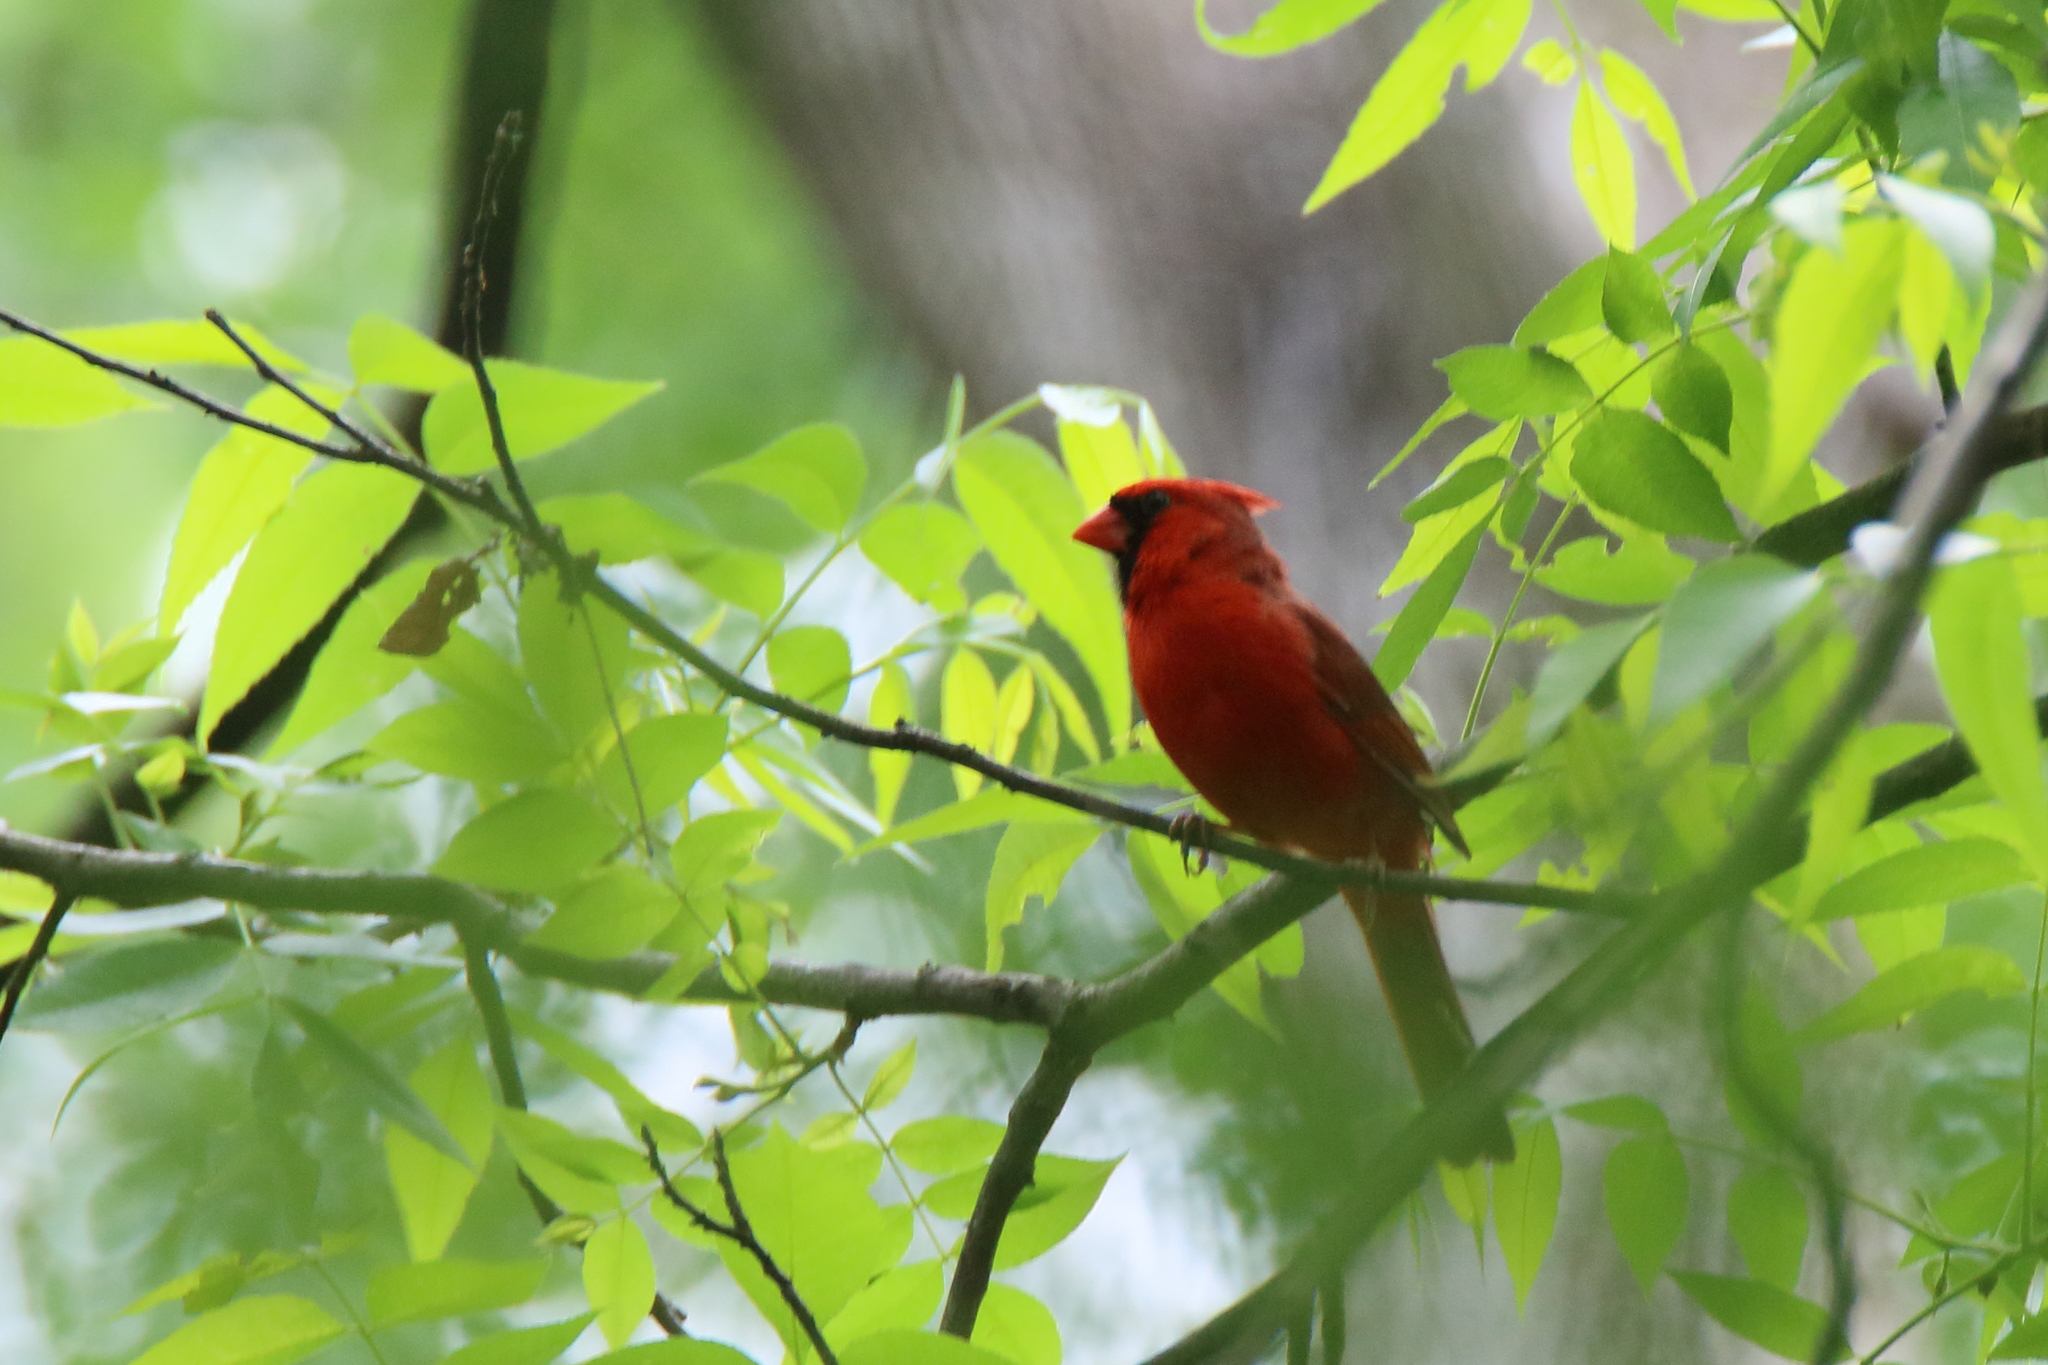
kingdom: Animalia
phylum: Chordata
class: Aves
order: Passeriformes
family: Cardinalidae
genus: Cardinalis
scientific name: Cardinalis cardinalis
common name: Northern cardinal
